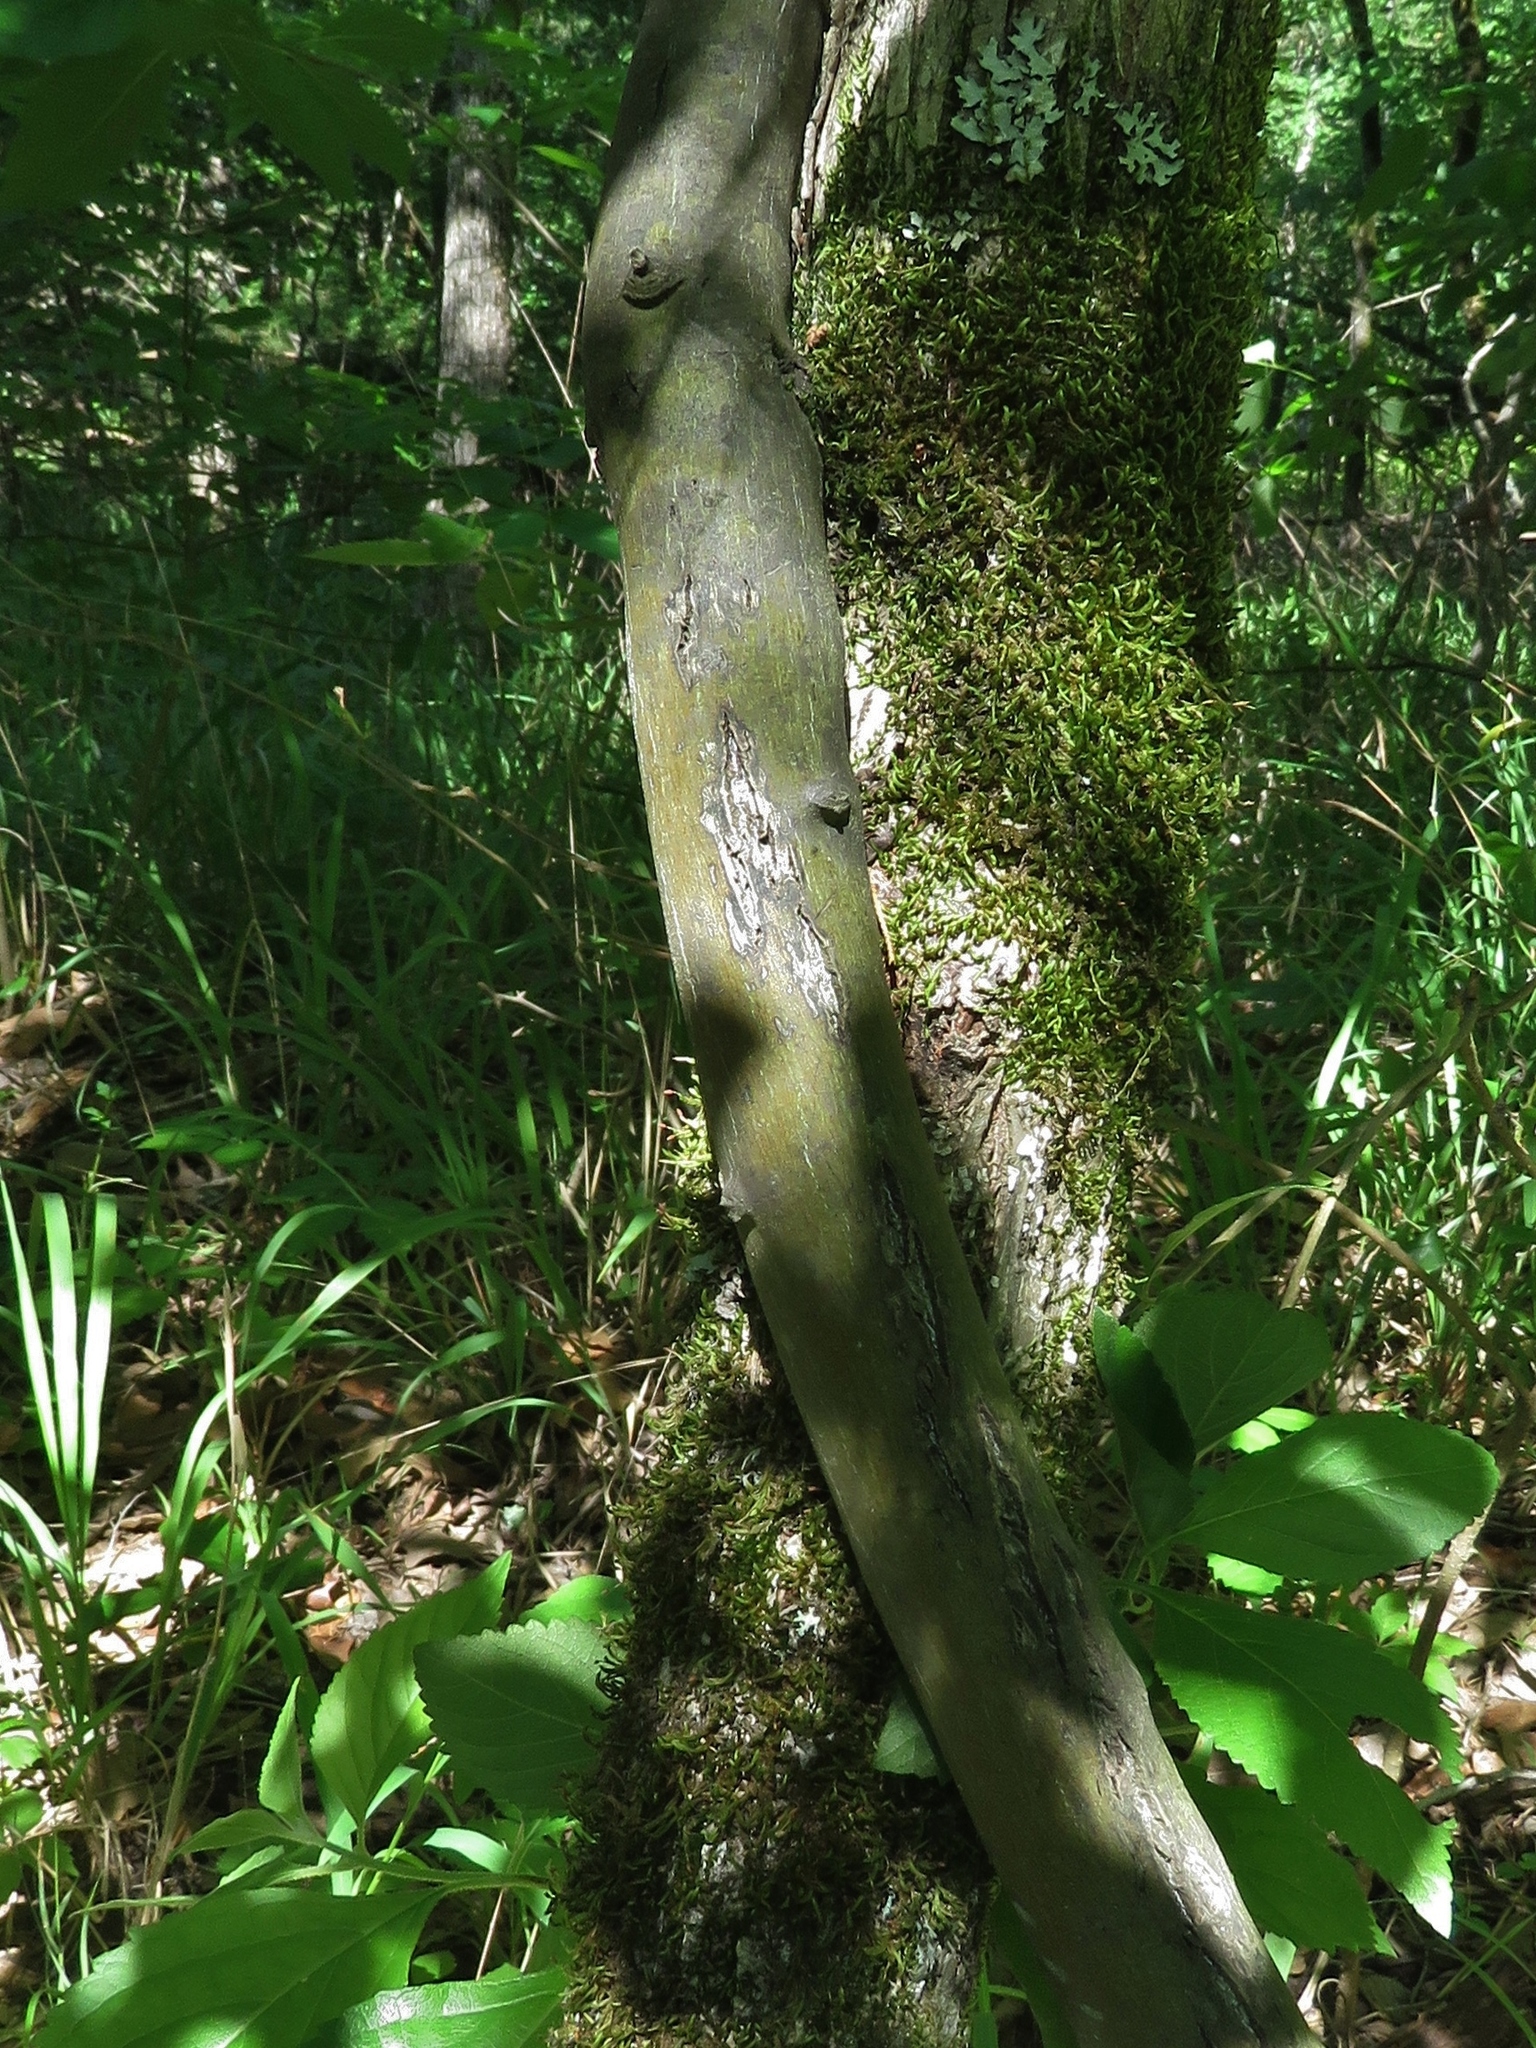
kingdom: Plantae
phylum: Tracheophyta
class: Magnoliopsida
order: Rosales
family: Rhamnaceae
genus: Berchemia
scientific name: Berchemia scandens
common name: Supplejack
